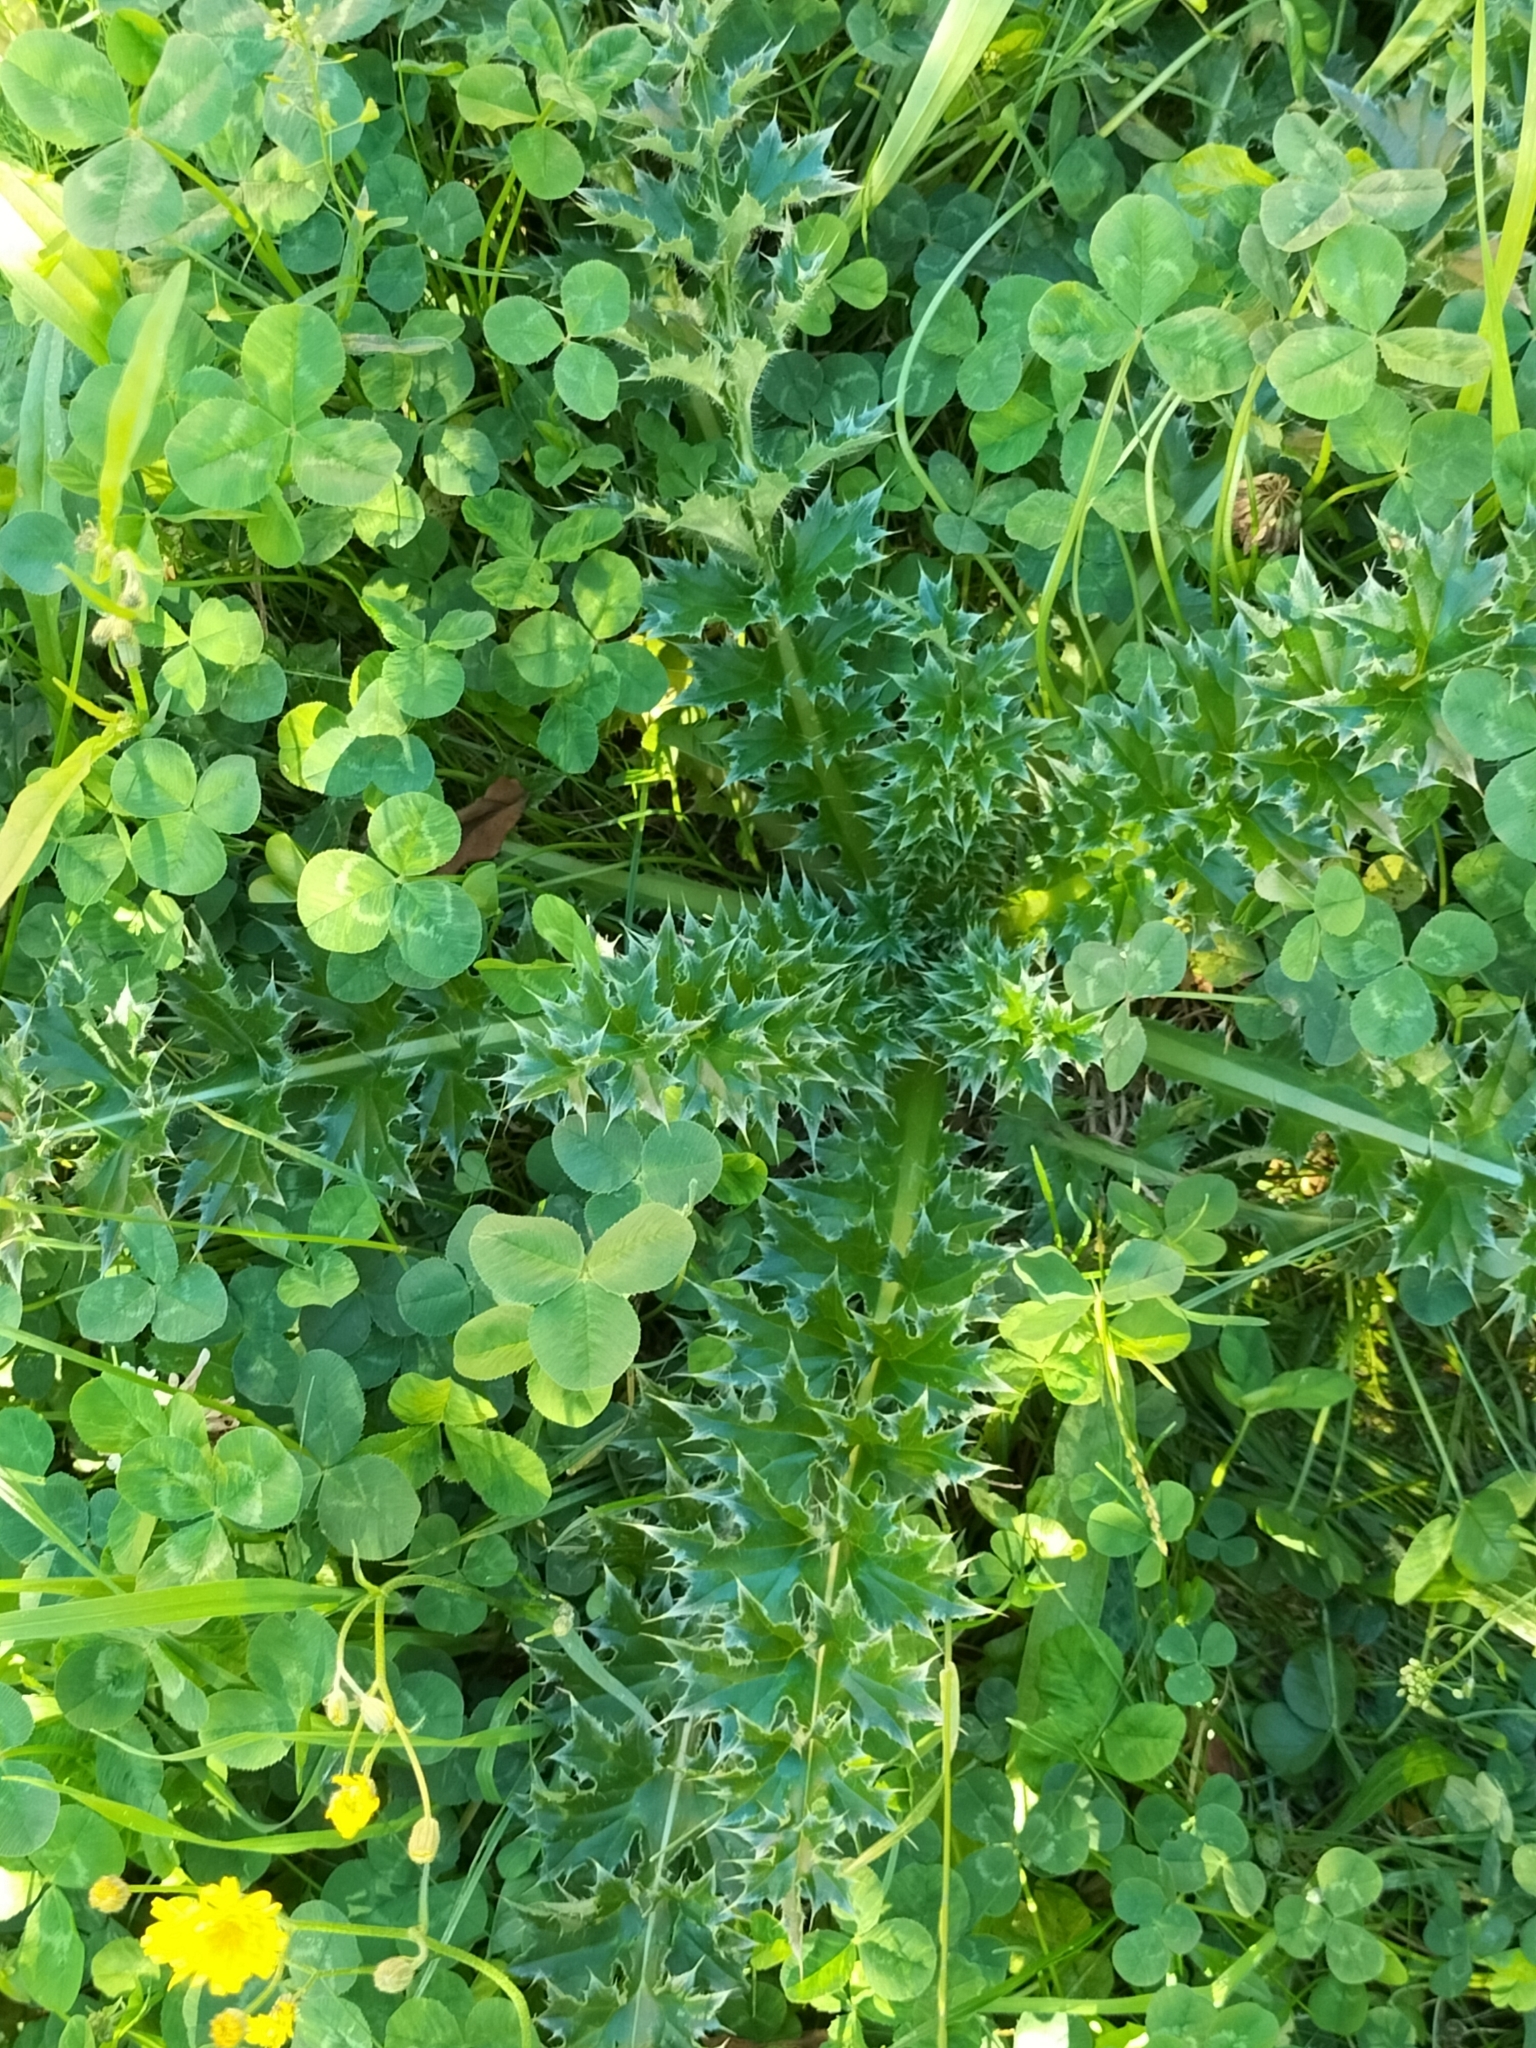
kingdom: Plantae
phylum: Tracheophyta
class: Magnoliopsida
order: Asterales
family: Asteraceae
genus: Carduus
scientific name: Carduus nutans
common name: Musk thistle
